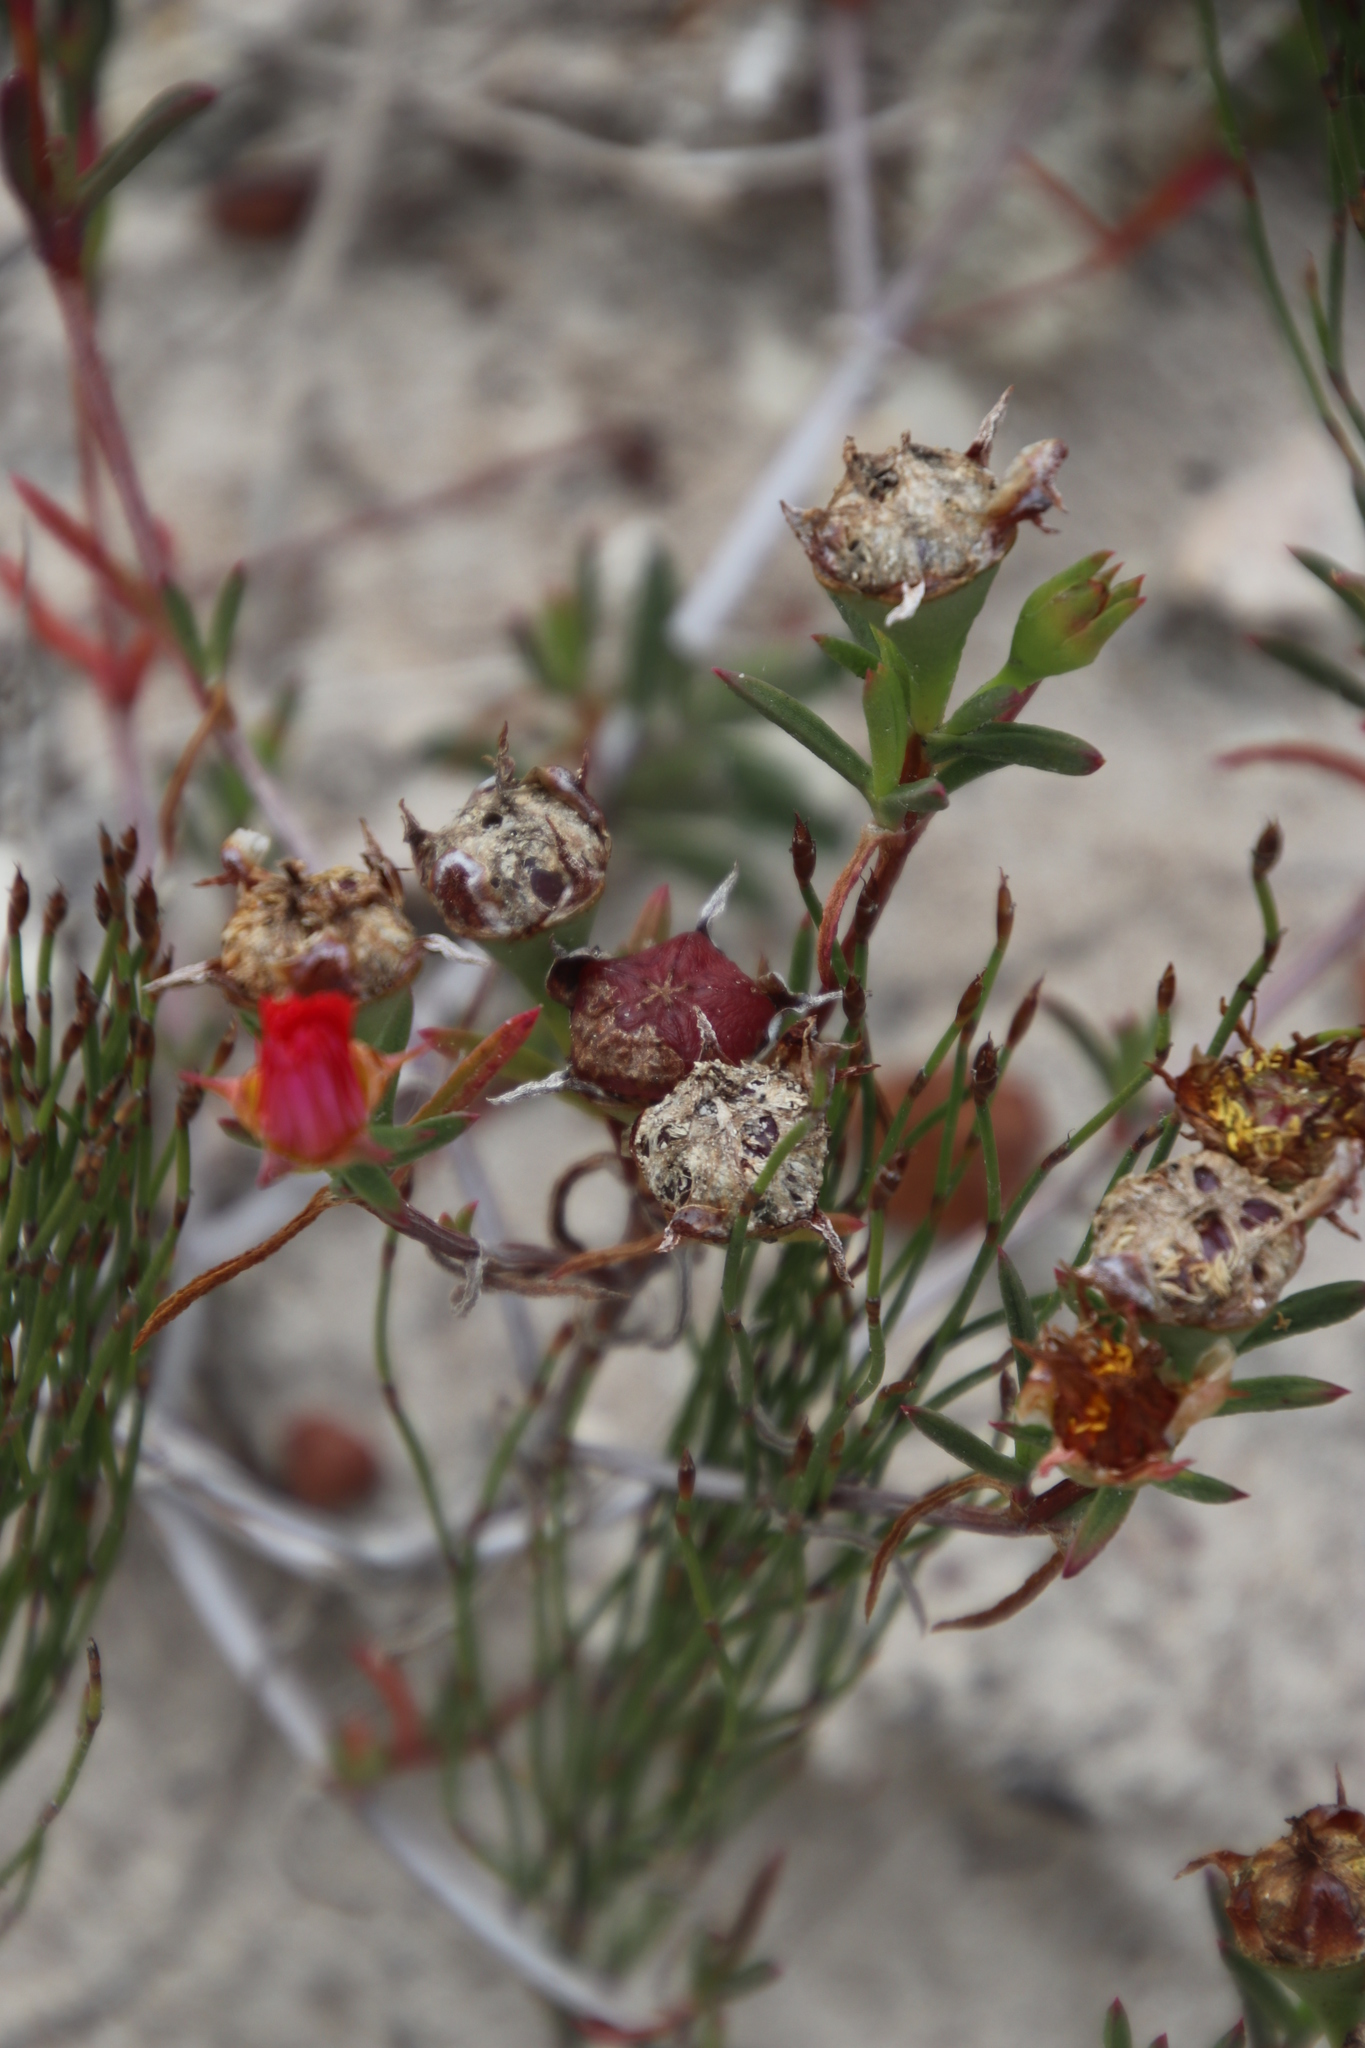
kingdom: Plantae
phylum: Tracheophyta
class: Magnoliopsida
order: Caryophyllales
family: Aizoaceae
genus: Lampranthus
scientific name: Lampranthus fergusoniae
